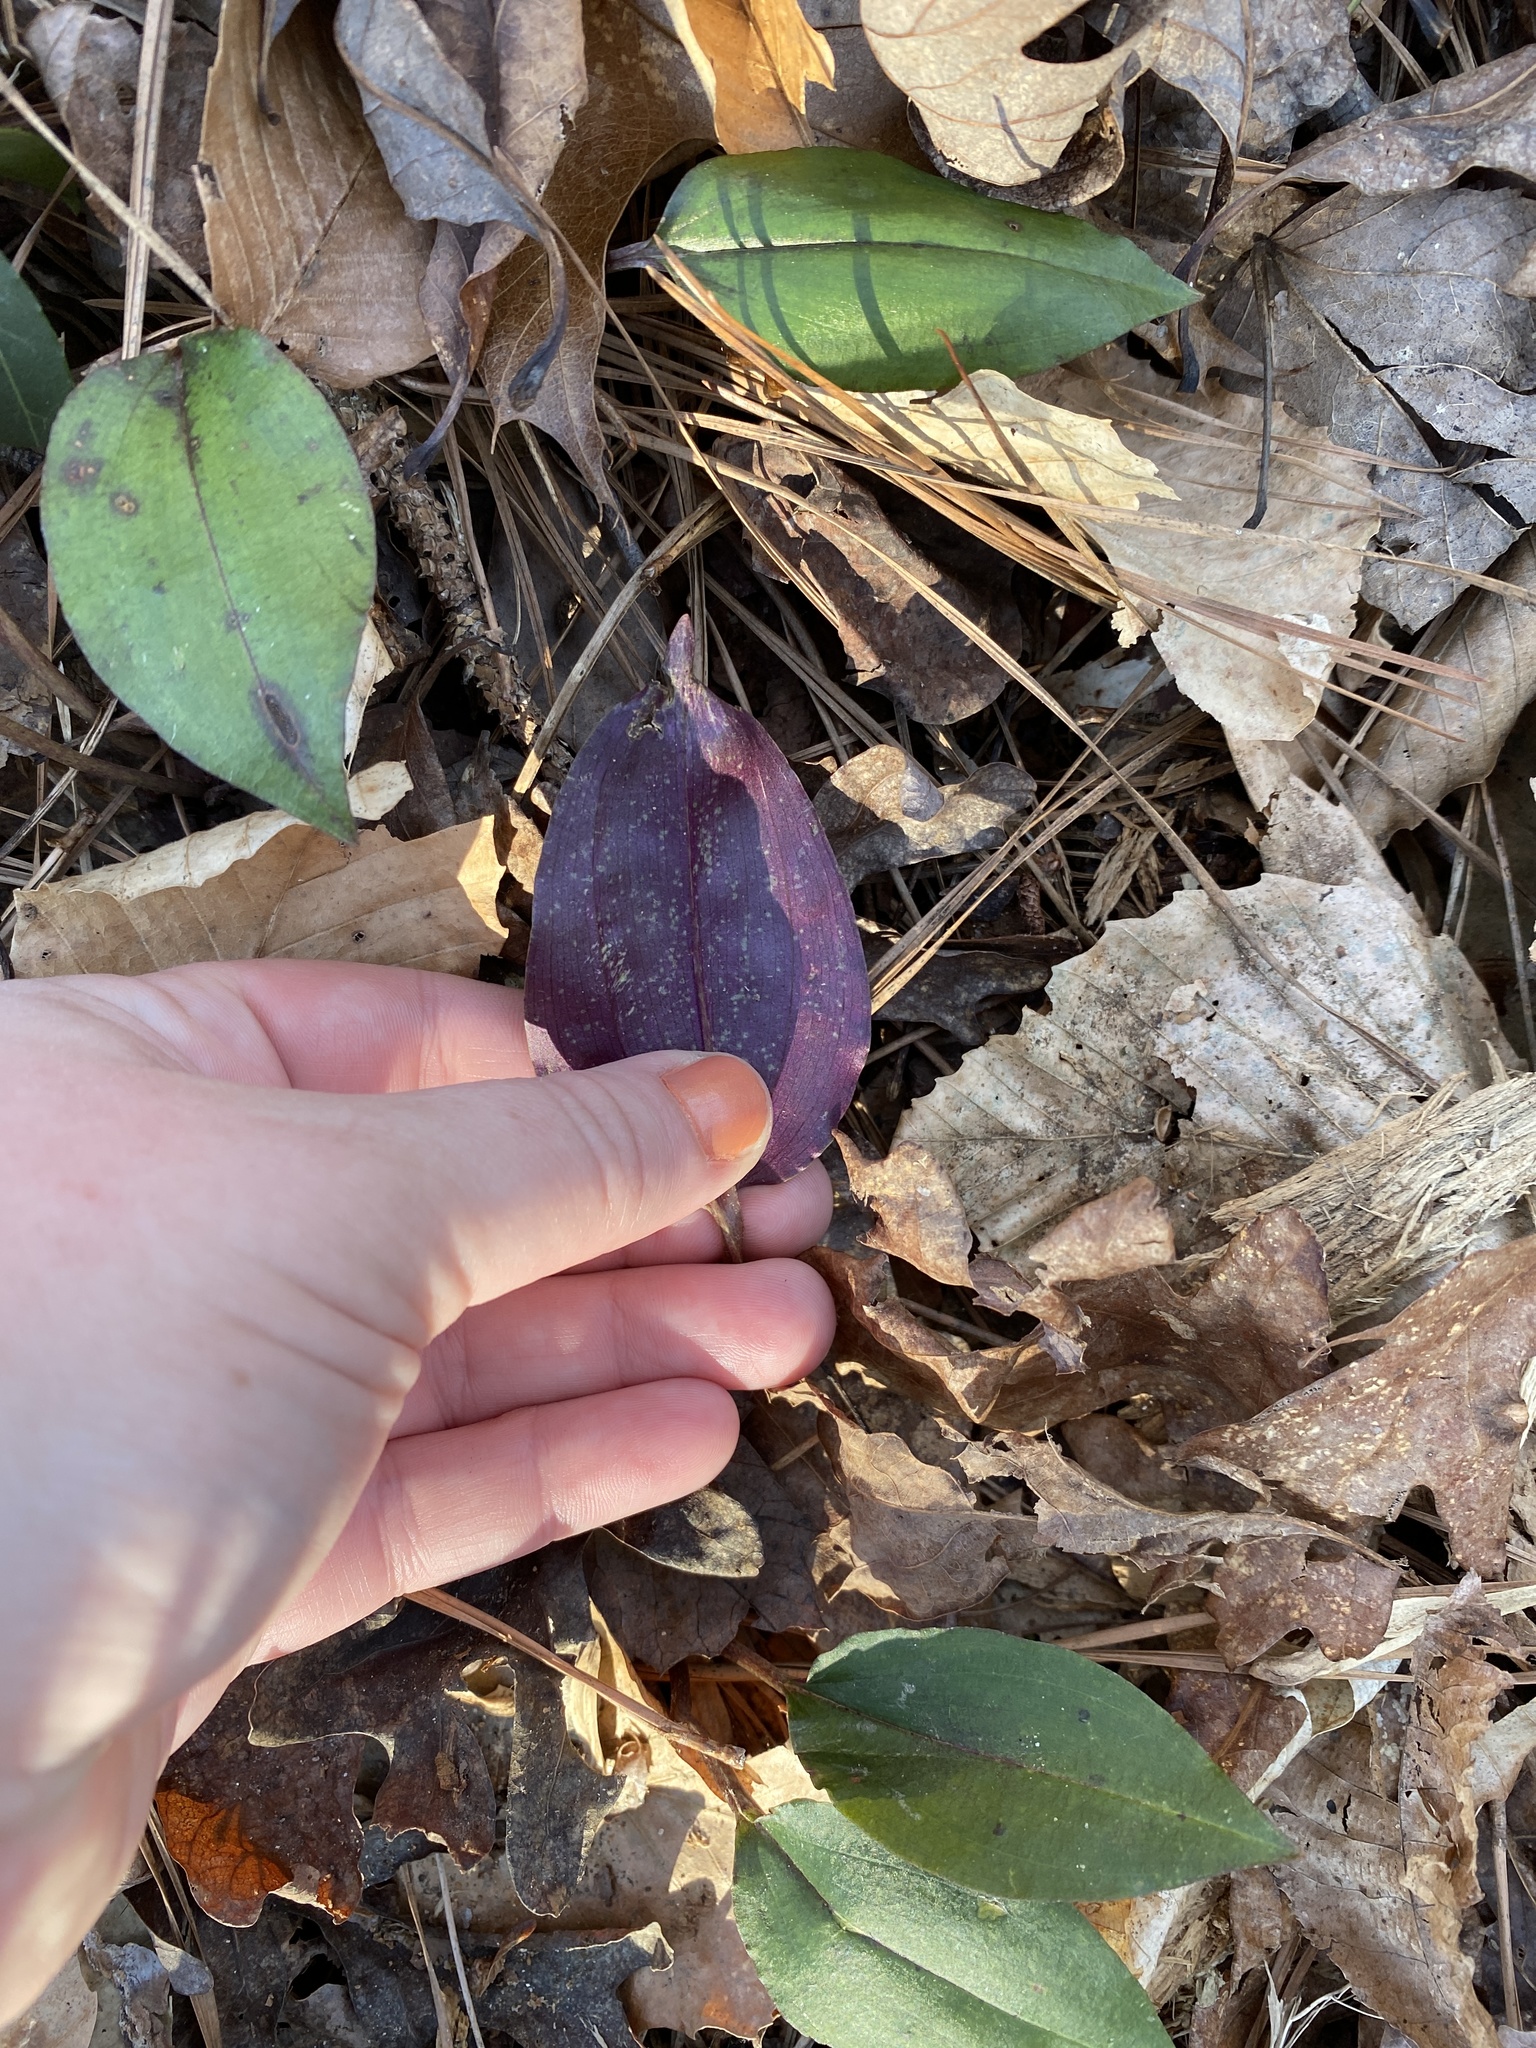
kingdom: Plantae
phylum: Tracheophyta
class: Liliopsida
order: Asparagales
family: Orchidaceae
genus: Tipularia
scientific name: Tipularia discolor
